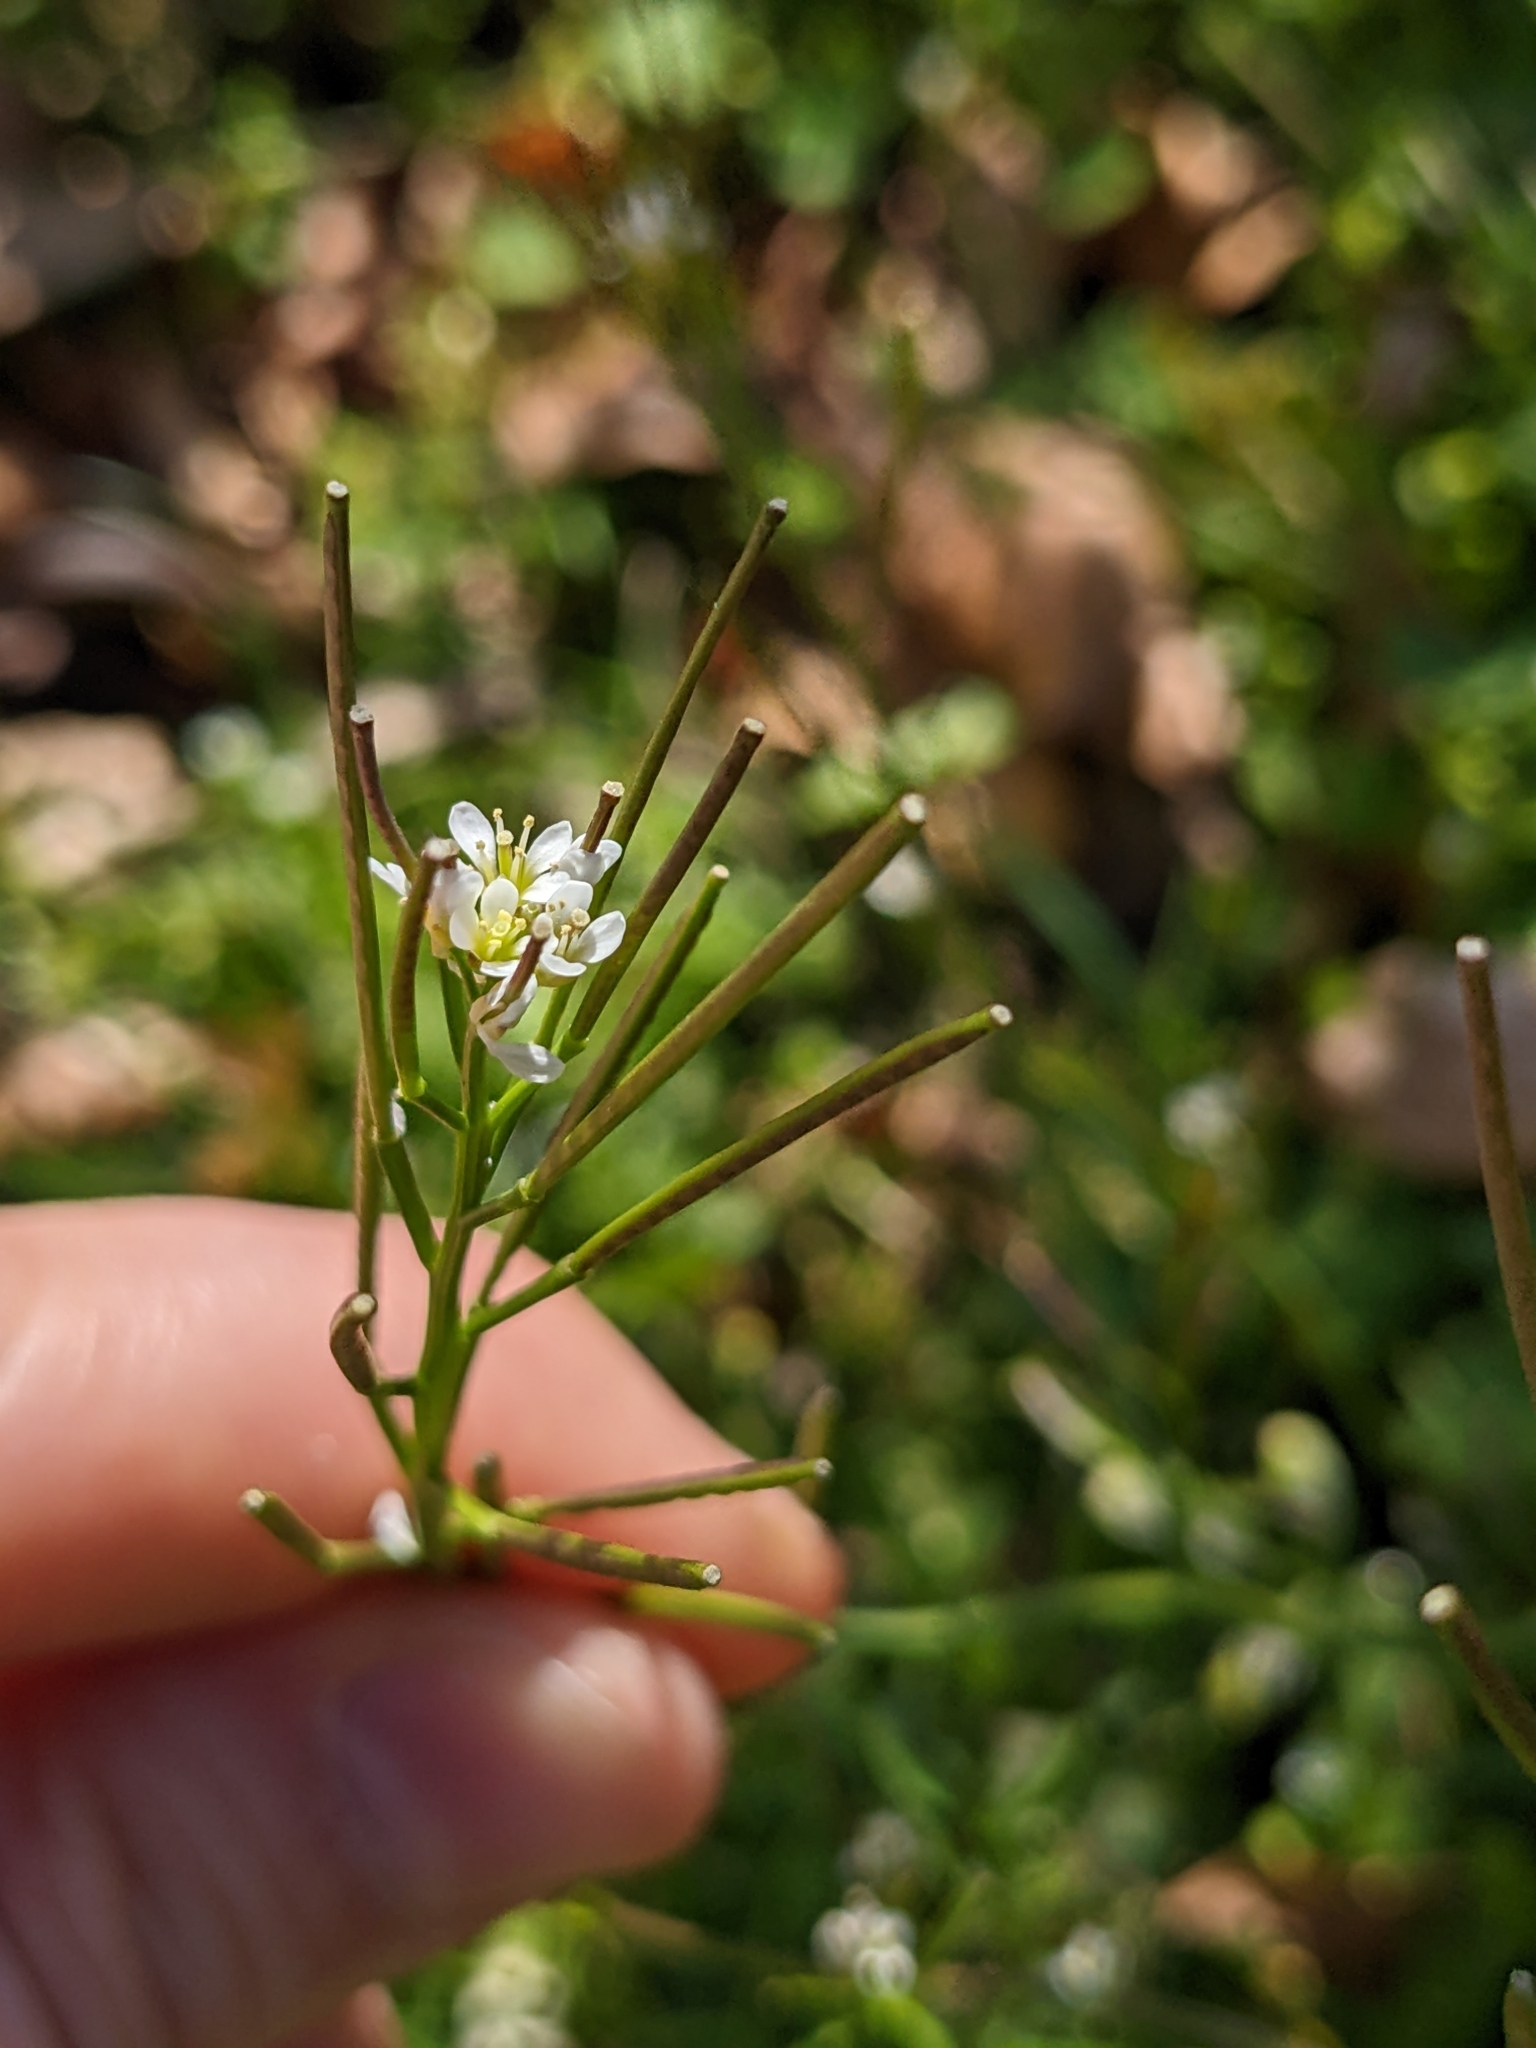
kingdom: Plantae
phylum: Tracheophyta
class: Magnoliopsida
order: Brassicales
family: Brassicaceae
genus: Cardamine
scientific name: Cardamine hirsuta
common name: Hairy bittercress
